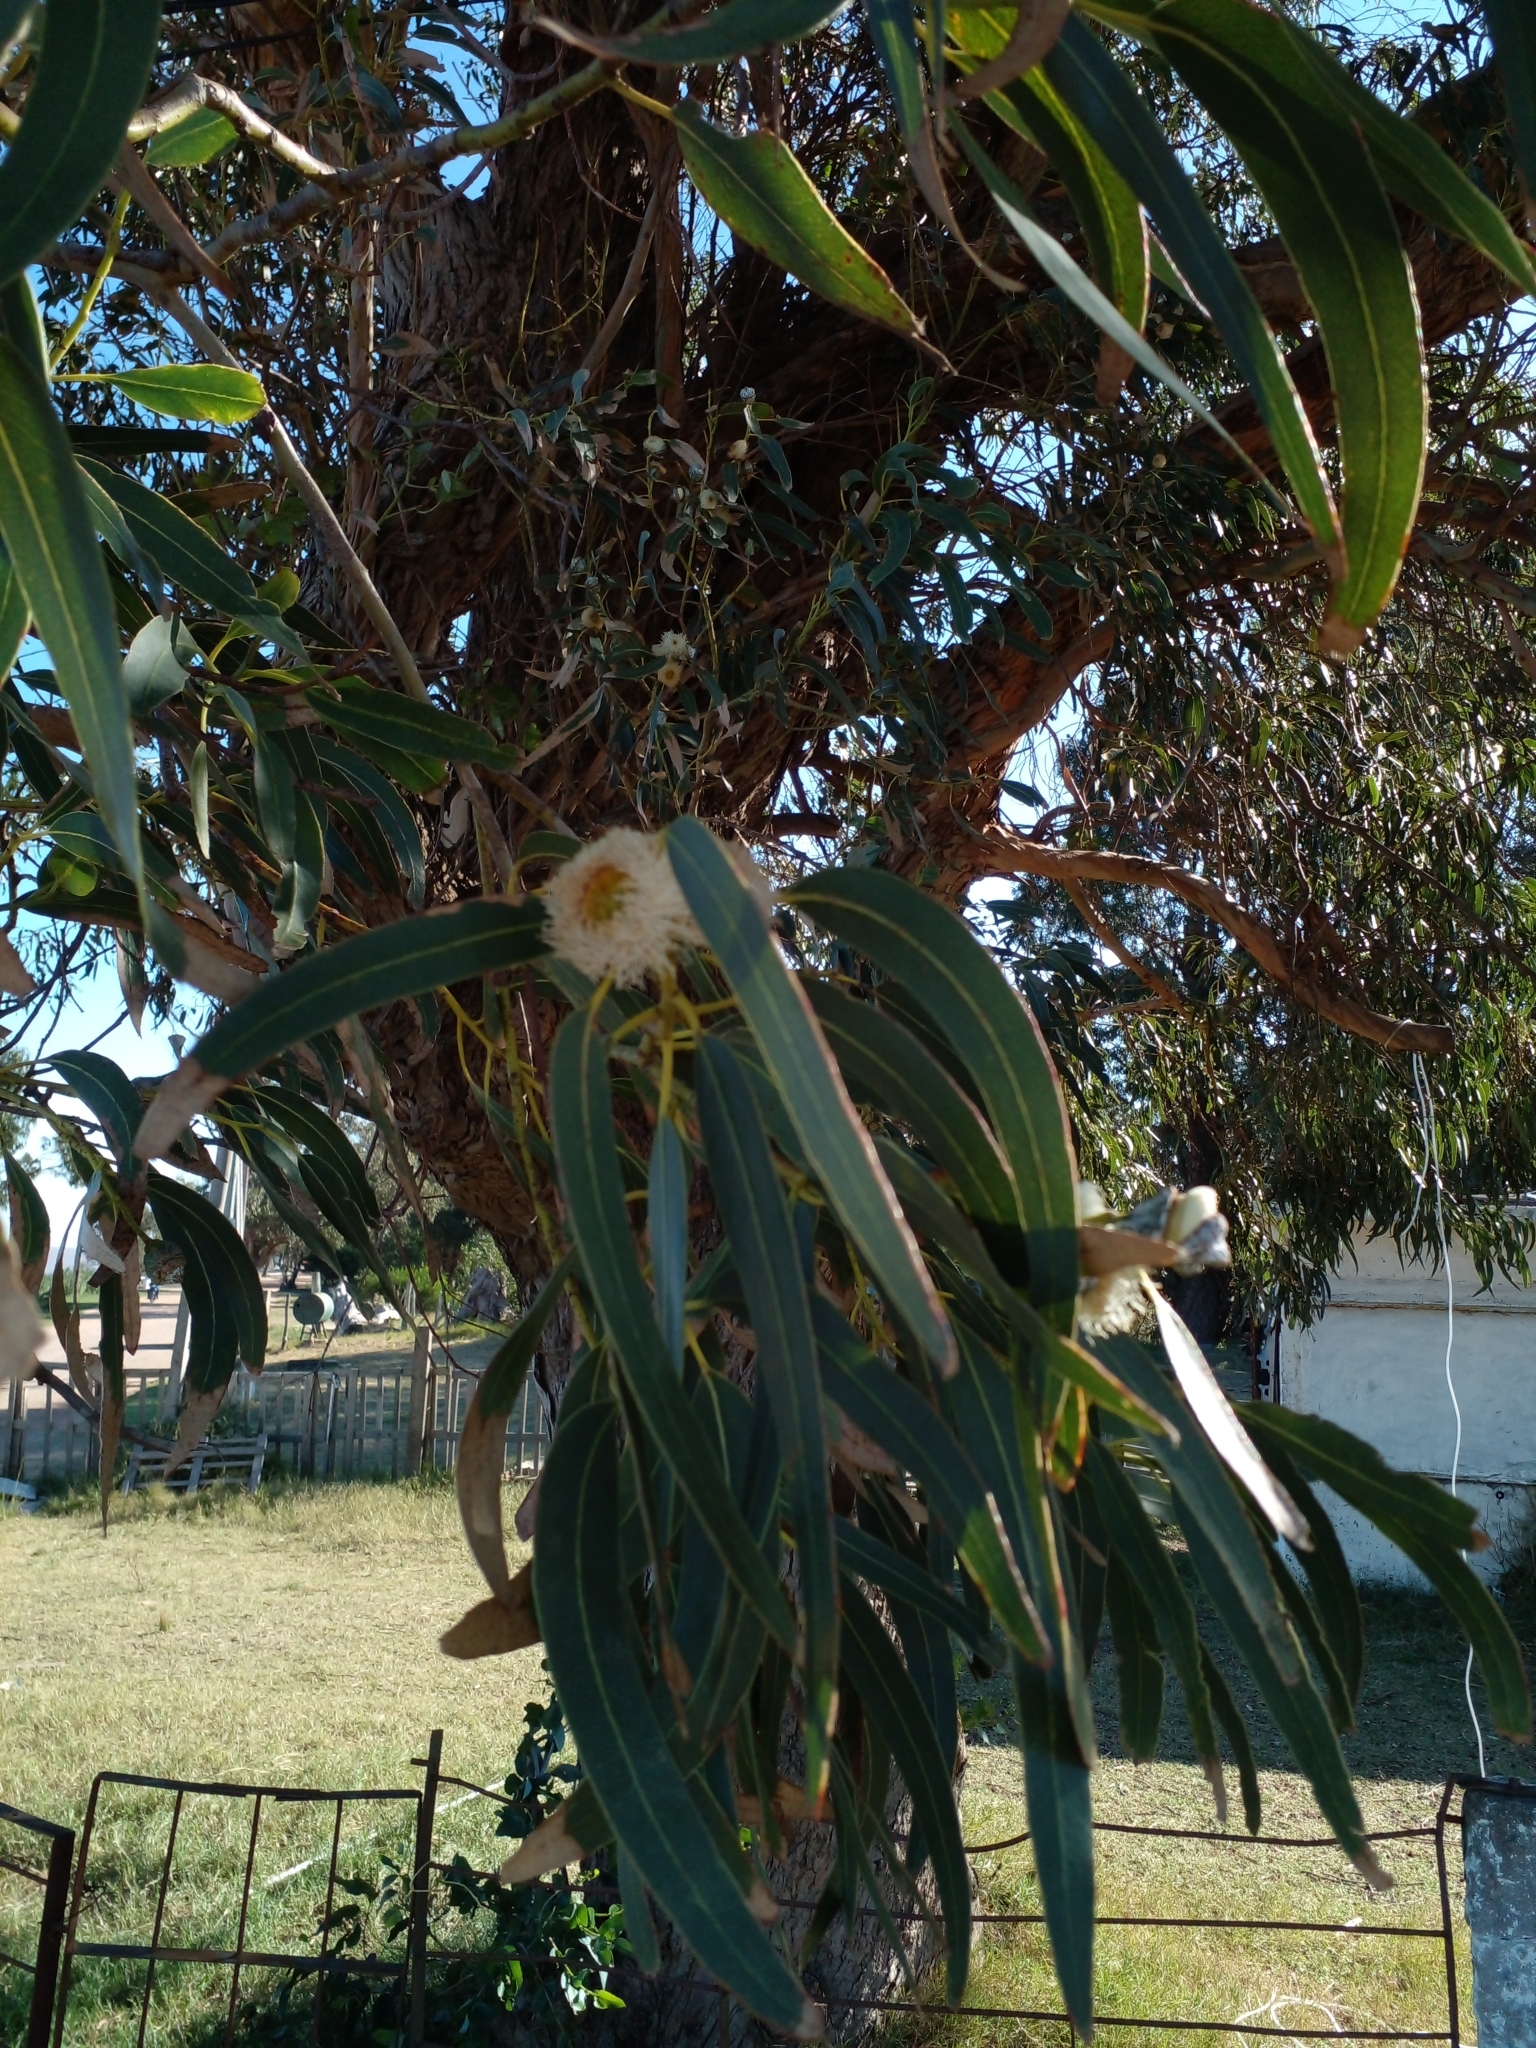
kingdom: Plantae
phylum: Tracheophyta
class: Magnoliopsida
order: Myrtales
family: Myrtaceae
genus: Eucalyptus
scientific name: Eucalyptus globulus
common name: Southern blue-gum
